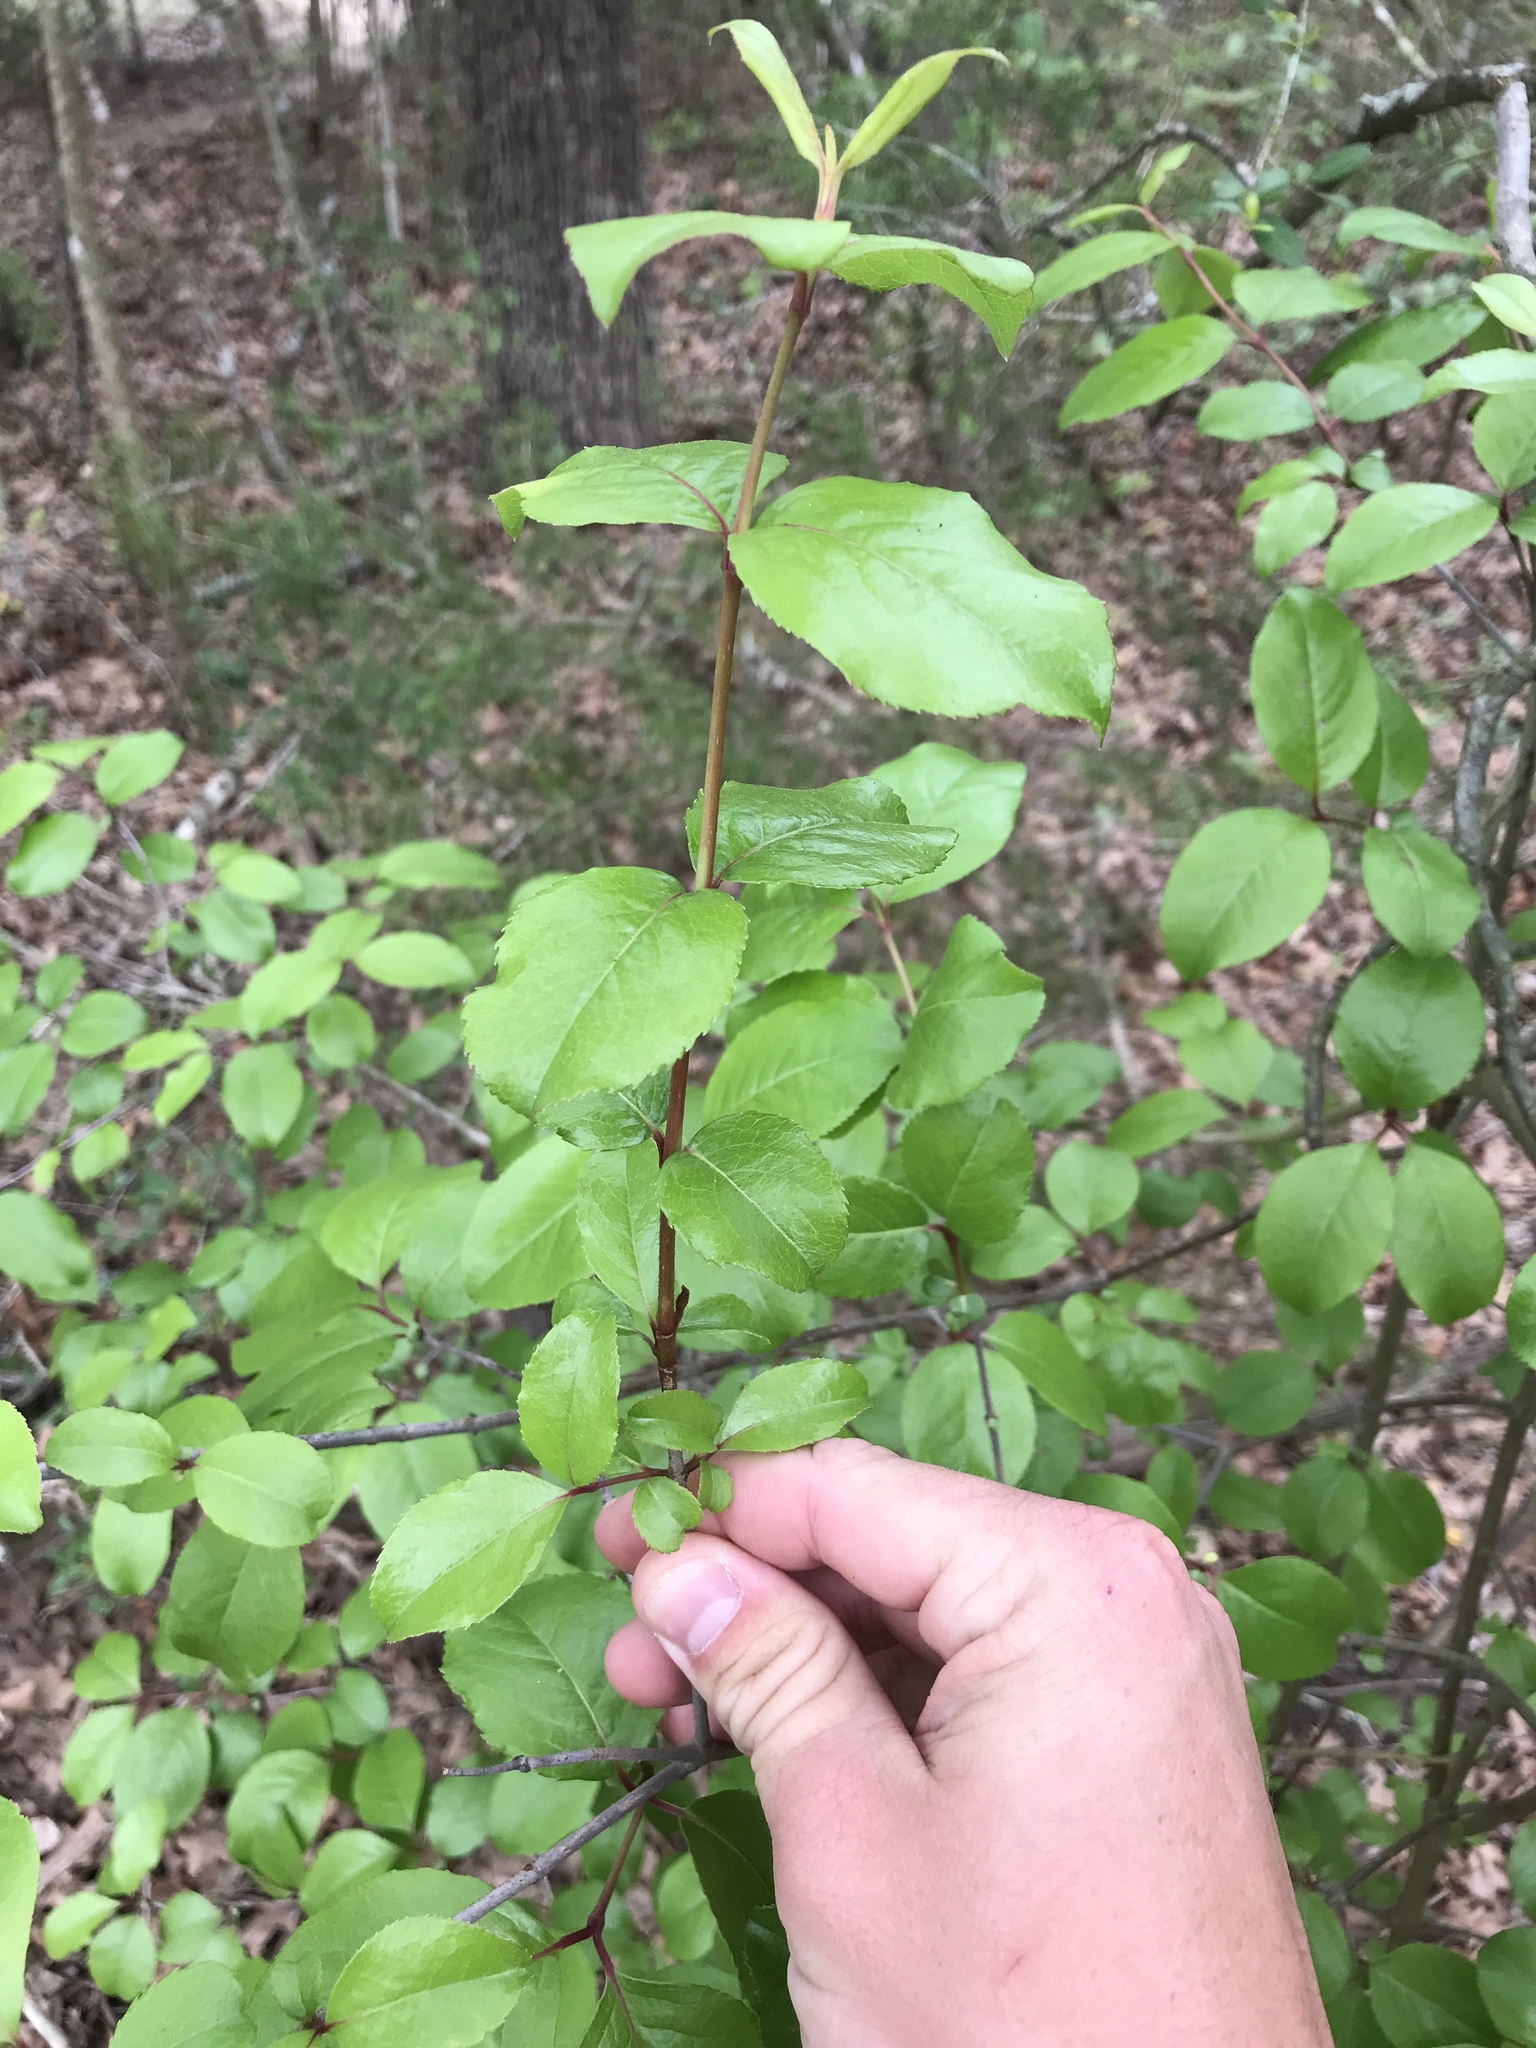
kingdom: Plantae
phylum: Tracheophyta
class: Magnoliopsida
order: Dipsacales
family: Viburnaceae
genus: Viburnum
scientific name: Viburnum rufidulum
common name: Blue haw
